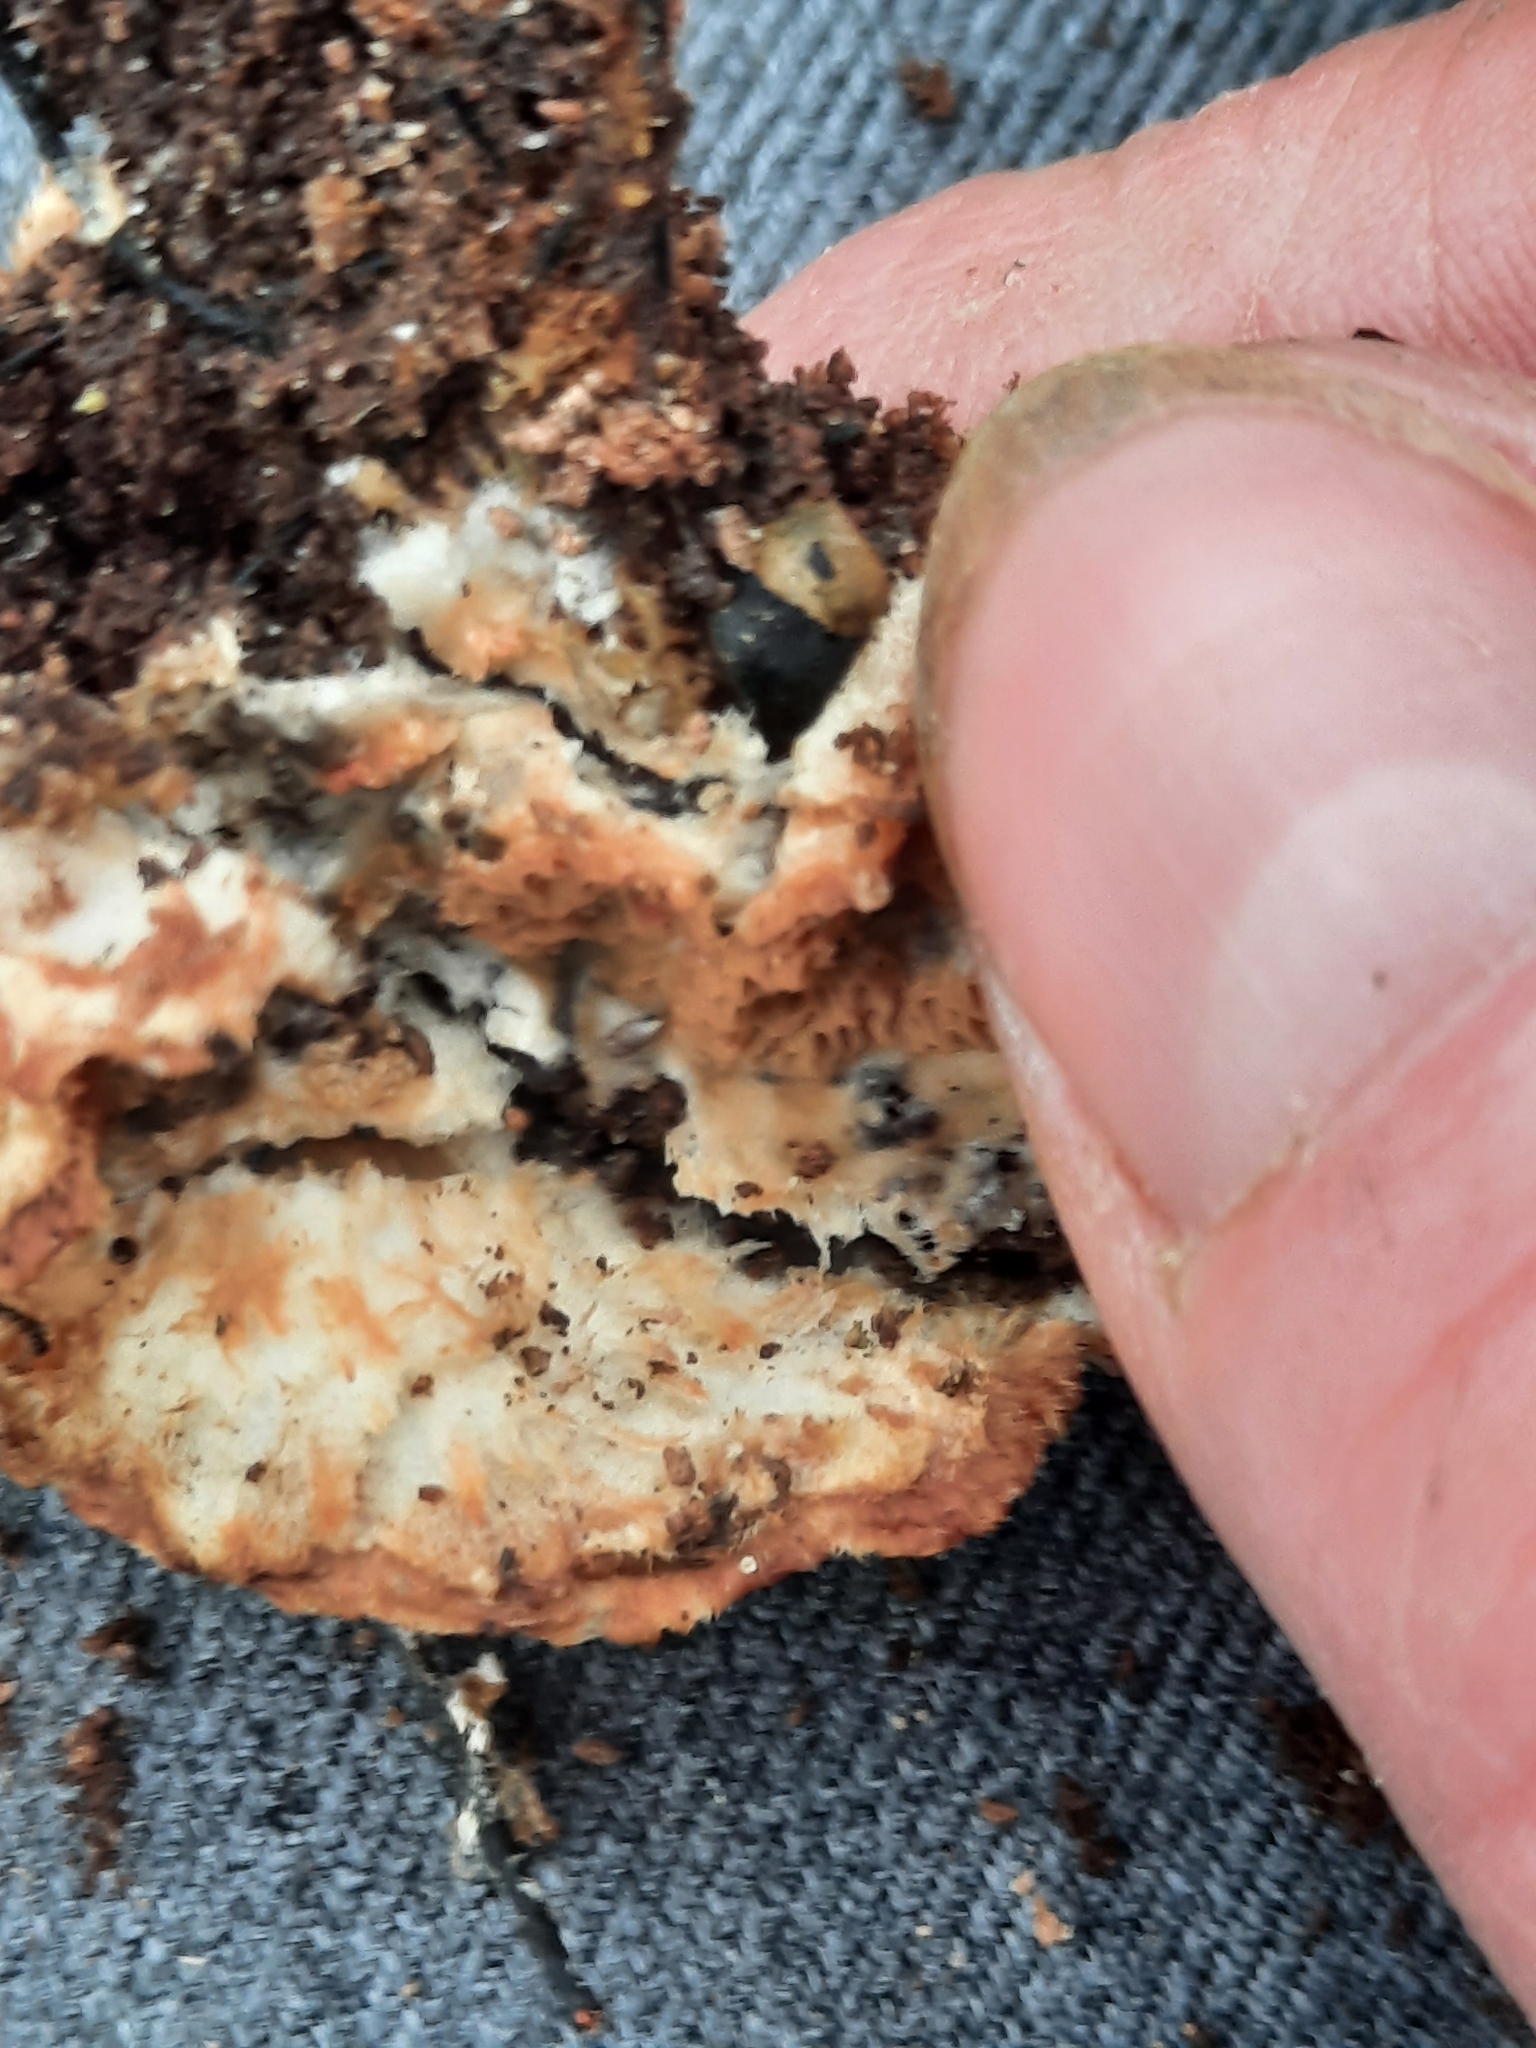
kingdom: Fungi
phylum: Basidiomycota
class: Agaricomycetes
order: Polyporales
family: Meruliaceae
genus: Phlebia
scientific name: Phlebia tremellosa
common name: Jelly rot
